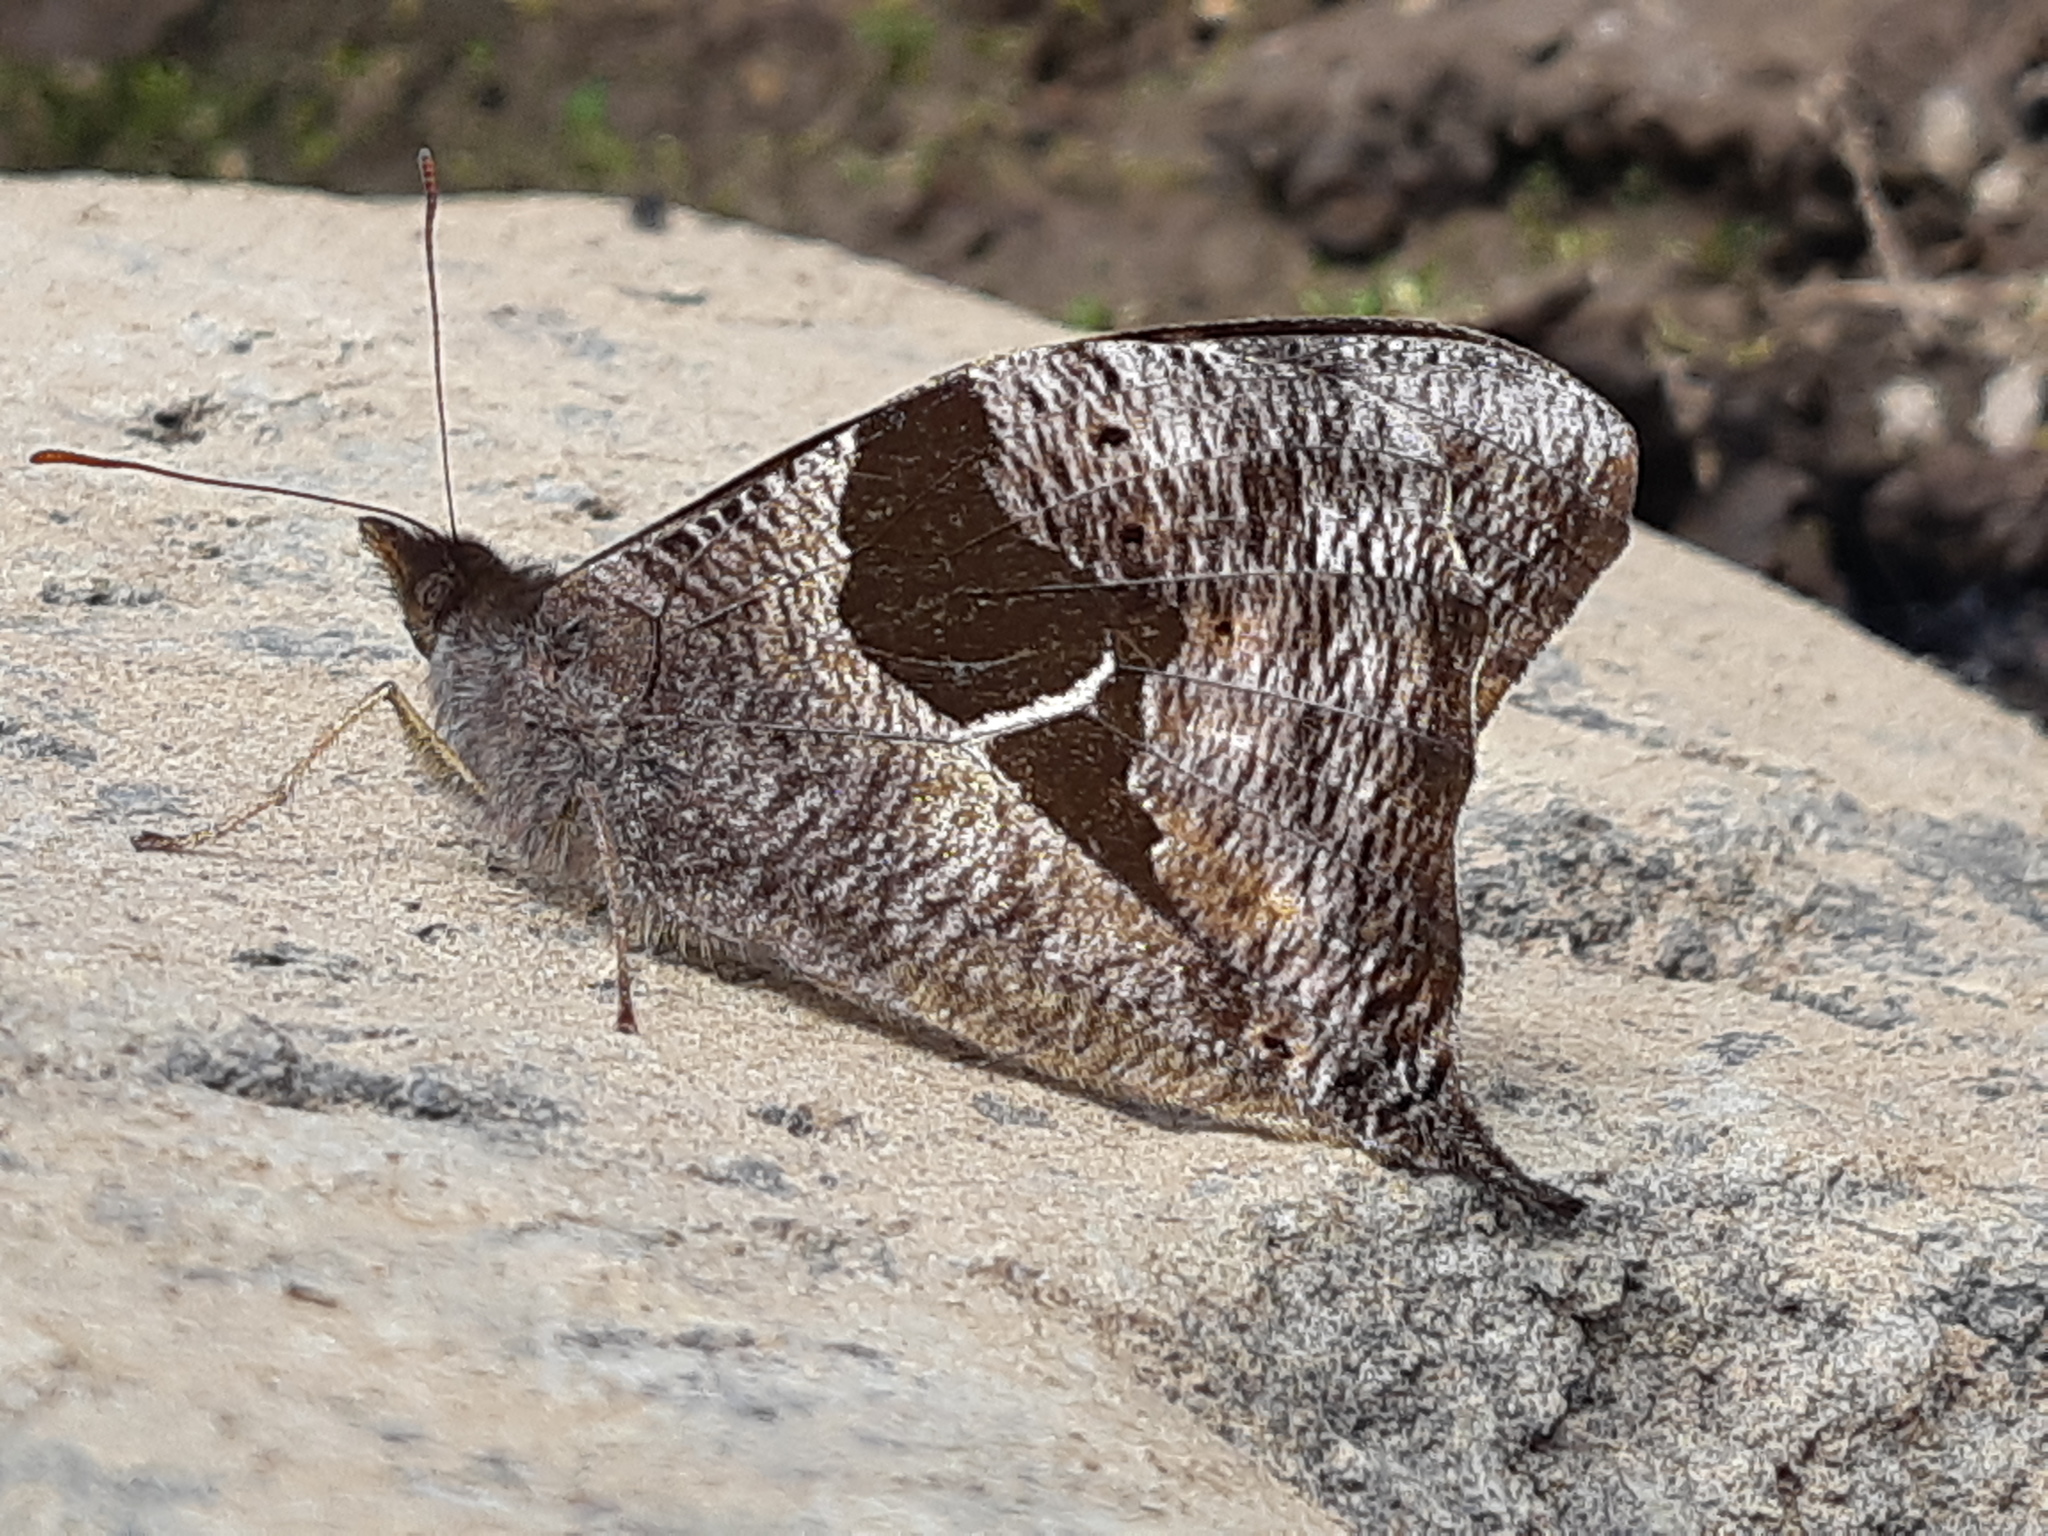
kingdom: Animalia
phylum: Arthropoda
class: Insecta
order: Lepidoptera
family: Nymphalidae
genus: Corades
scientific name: Corades cistene
